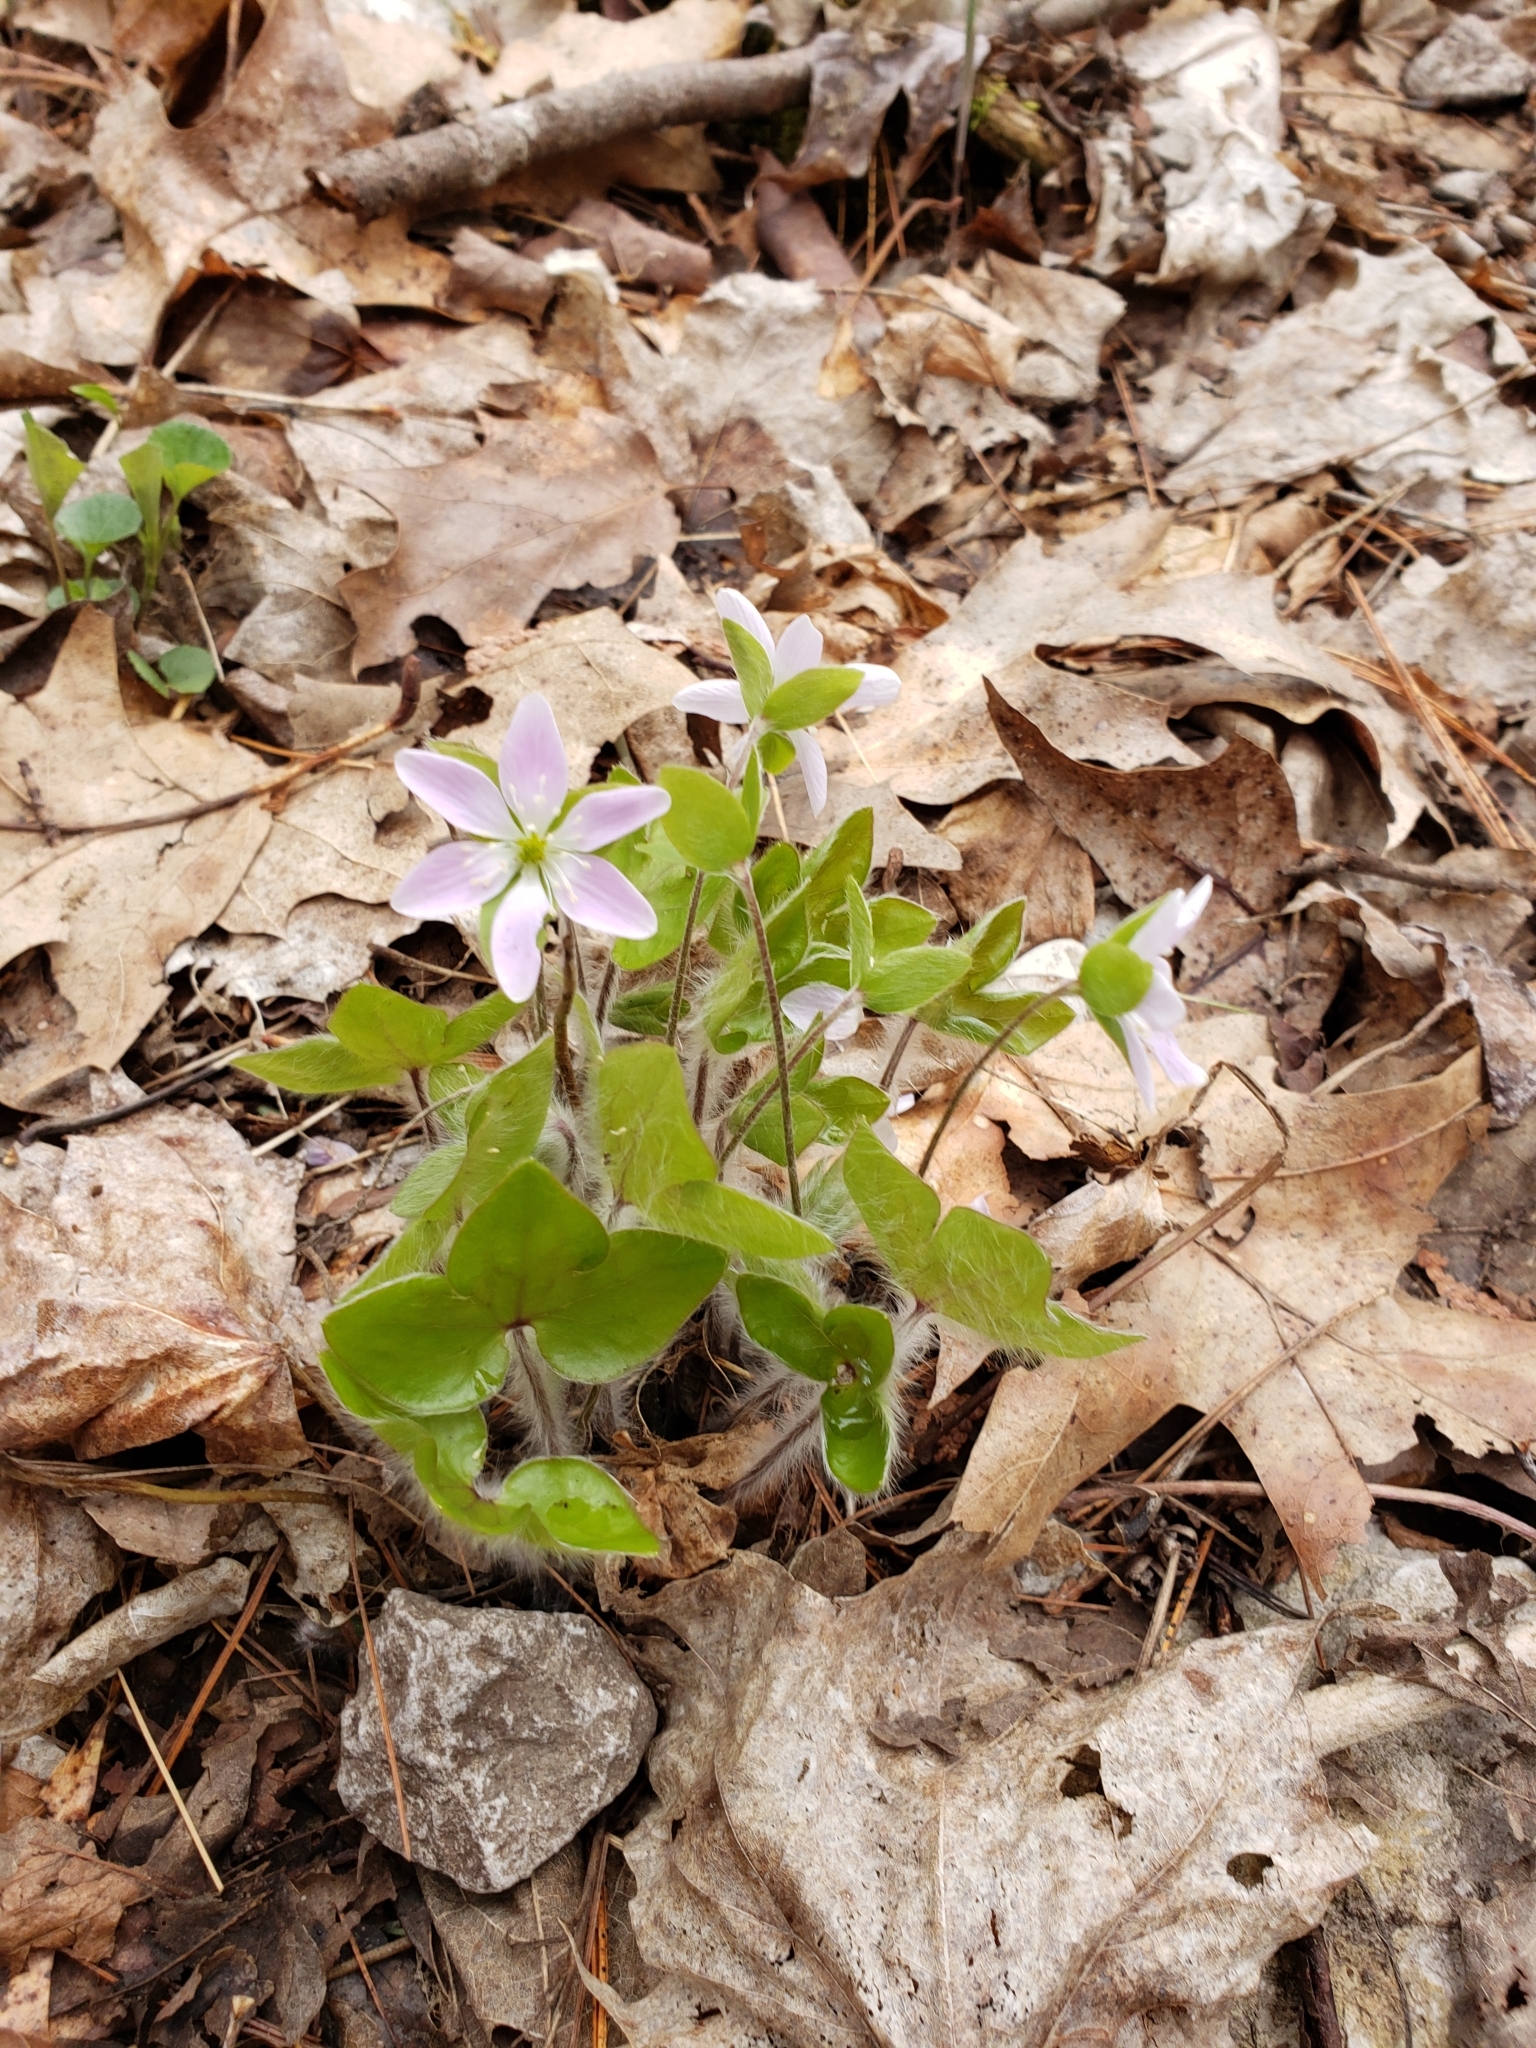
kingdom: Plantae
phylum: Tracheophyta
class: Magnoliopsida
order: Ranunculales
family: Ranunculaceae
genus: Hepatica
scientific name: Hepatica acutiloba
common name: Sharp-lobed hepatica
